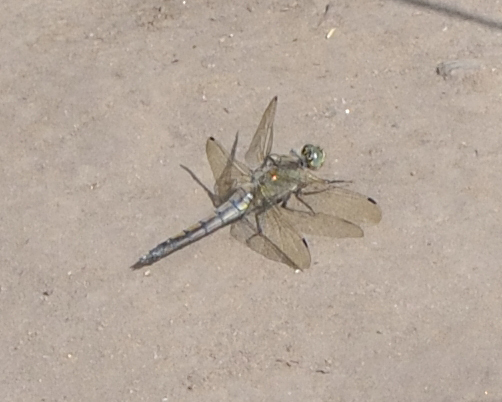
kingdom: Animalia
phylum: Arthropoda
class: Insecta
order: Odonata
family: Libellulidae
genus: Orthetrum
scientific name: Orthetrum cancellatum
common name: Black-tailed skimmer
